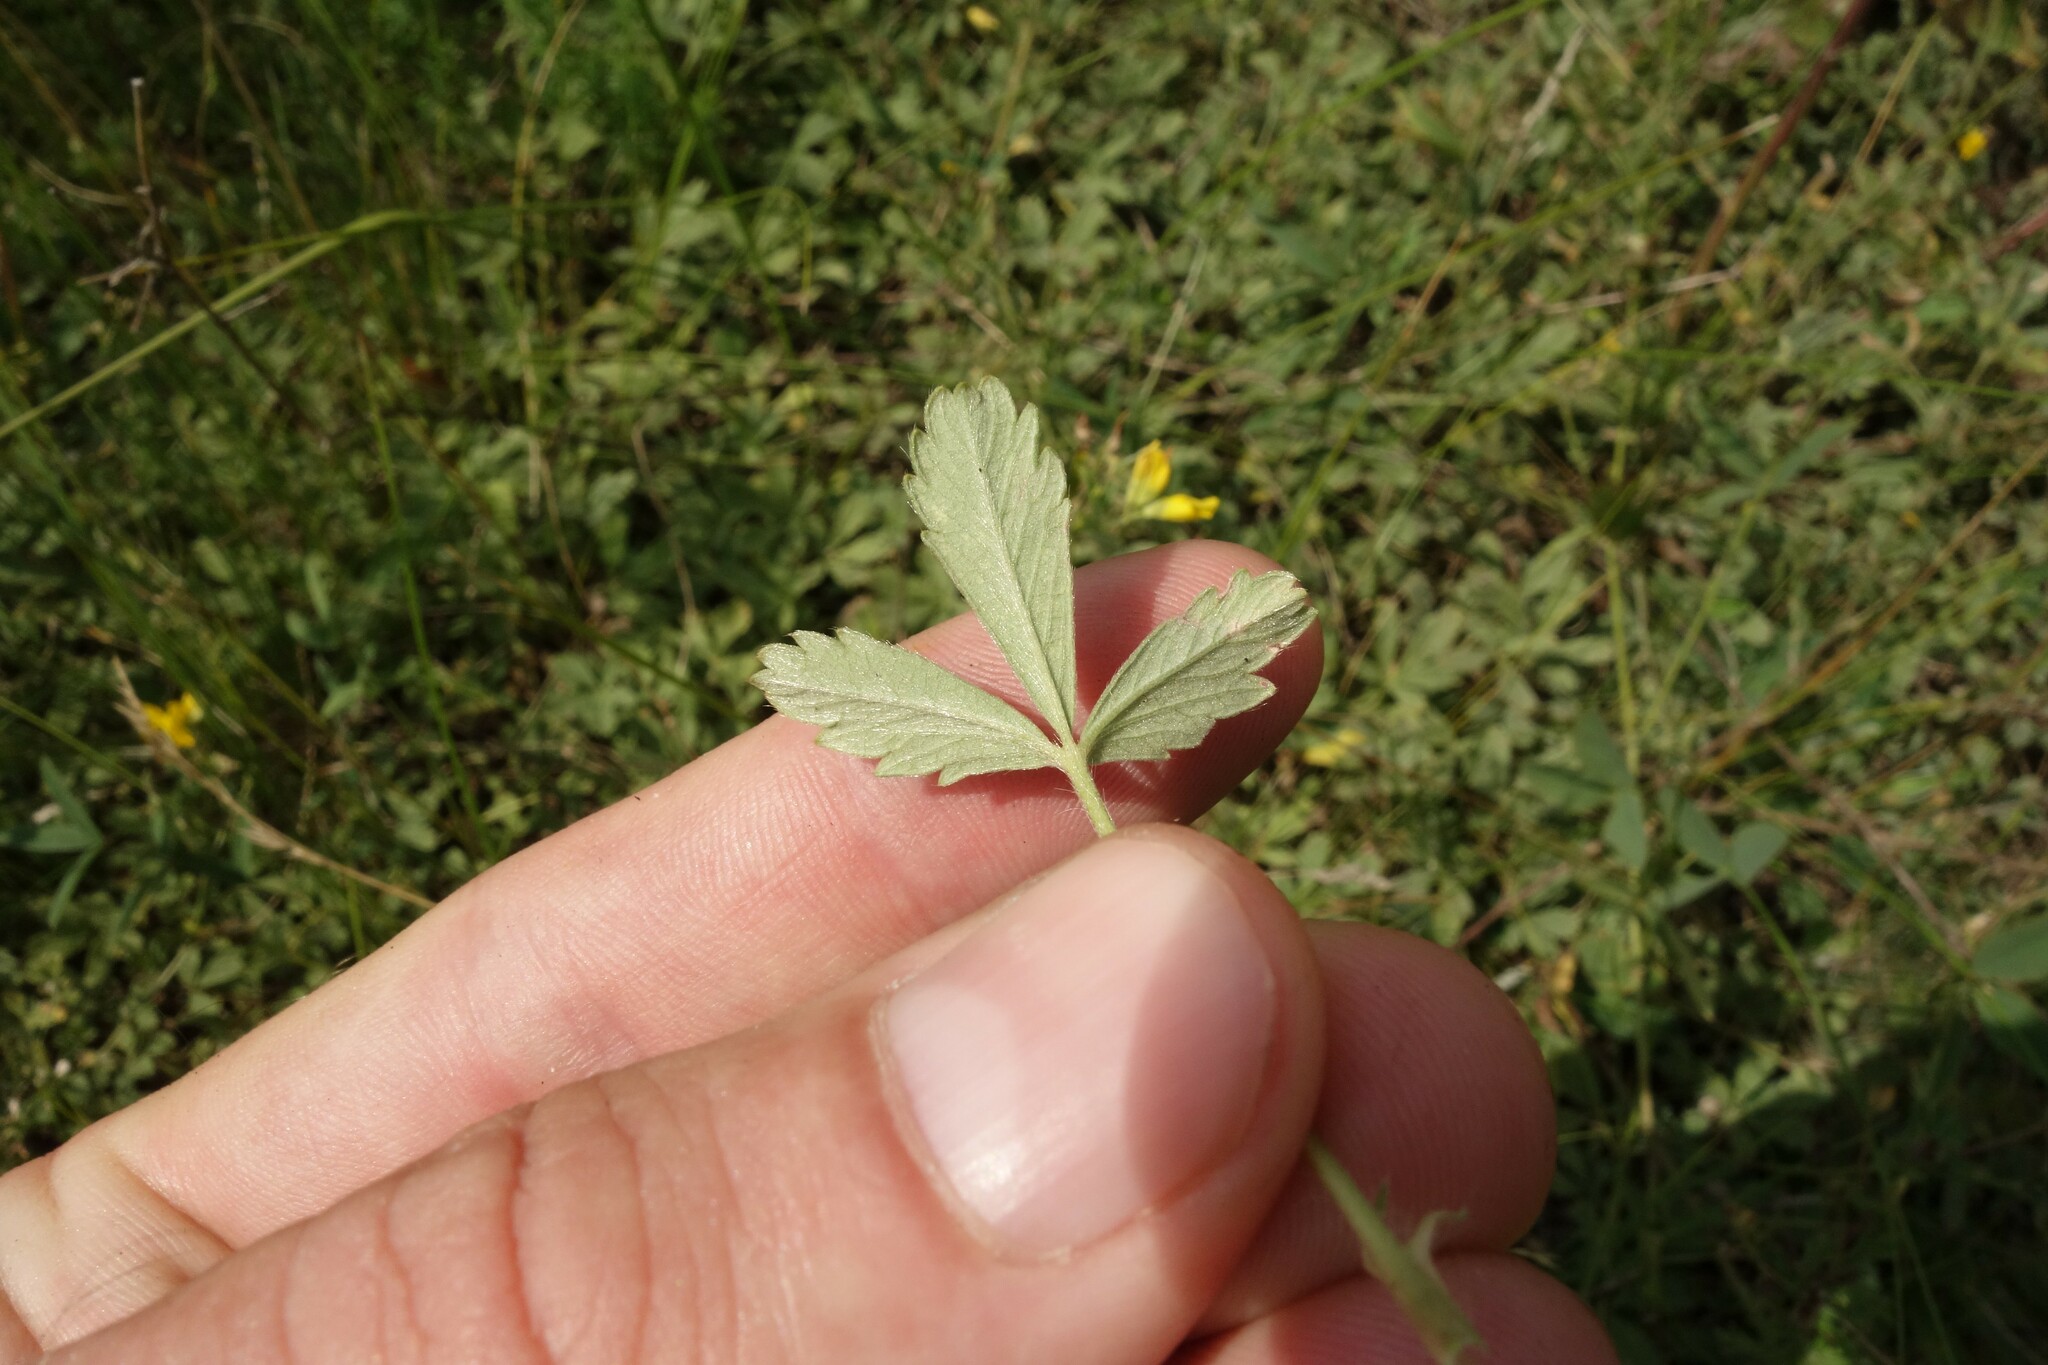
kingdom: Plantae
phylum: Tracheophyta
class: Magnoliopsida
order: Rosales
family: Rosaceae
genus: Potentilla
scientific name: Potentilla incana
